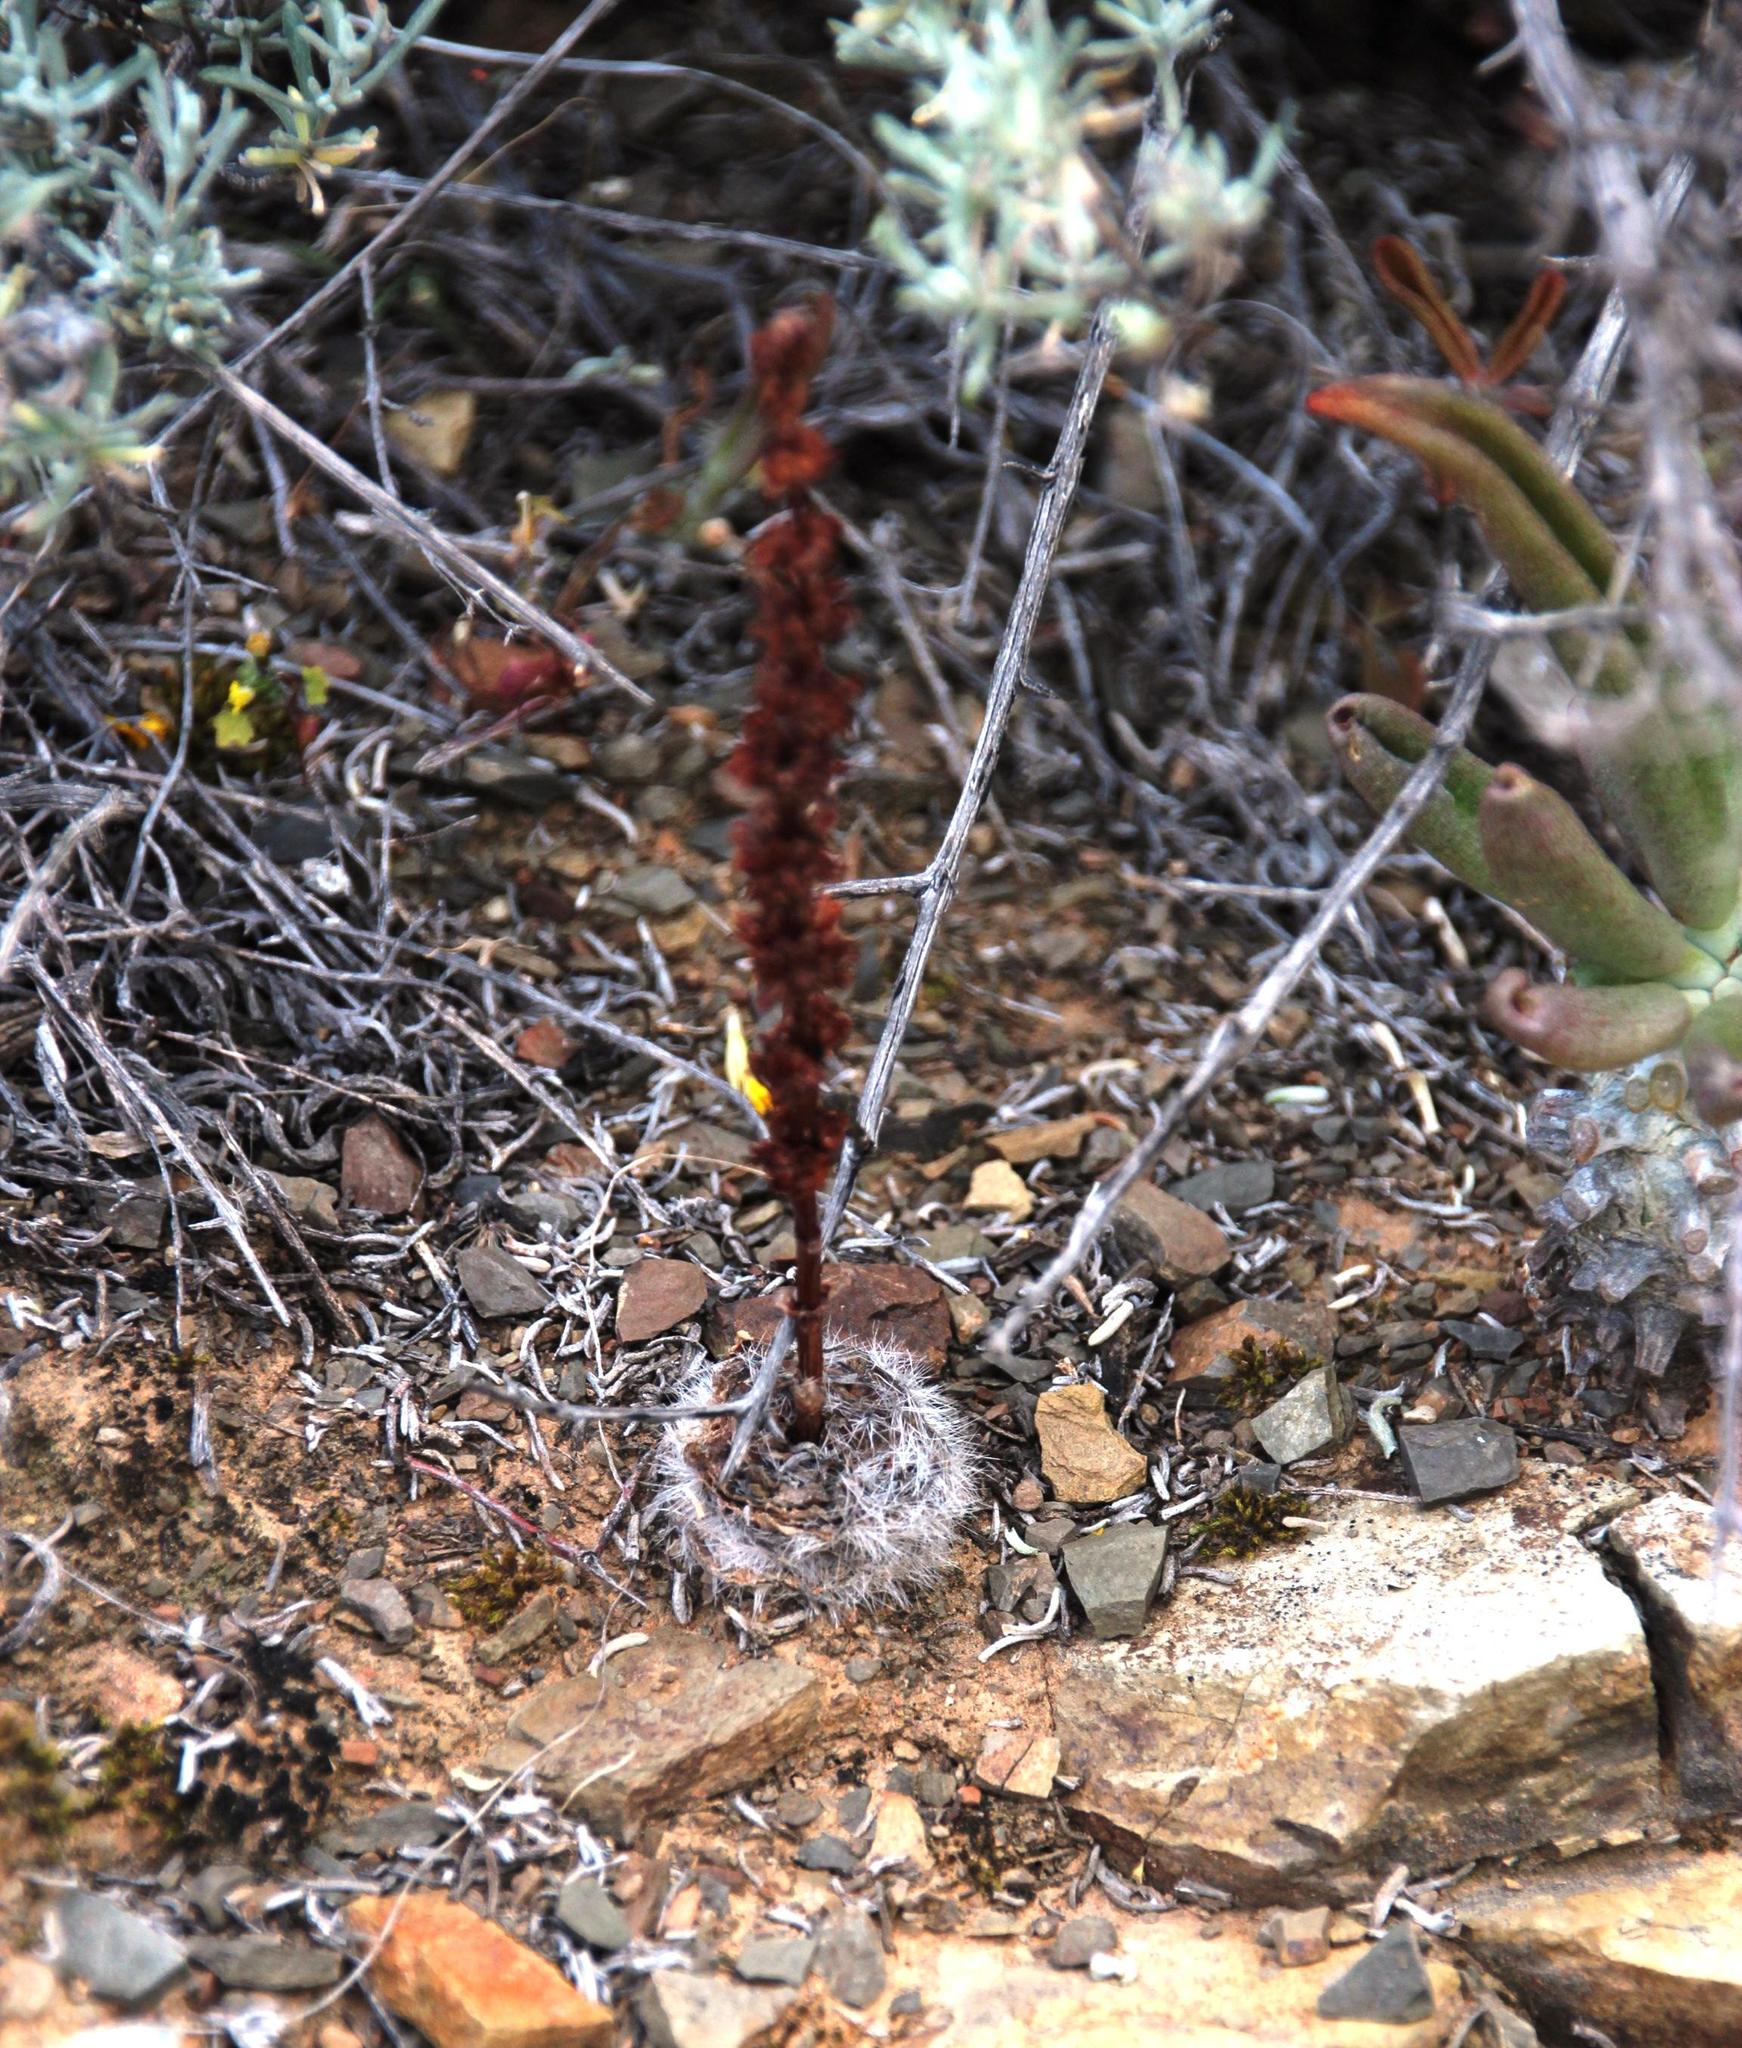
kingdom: Plantae
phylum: Tracheophyta
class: Magnoliopsida
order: Saxifragales
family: Crassulaceae
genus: Crassula
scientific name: Crassula barbata
